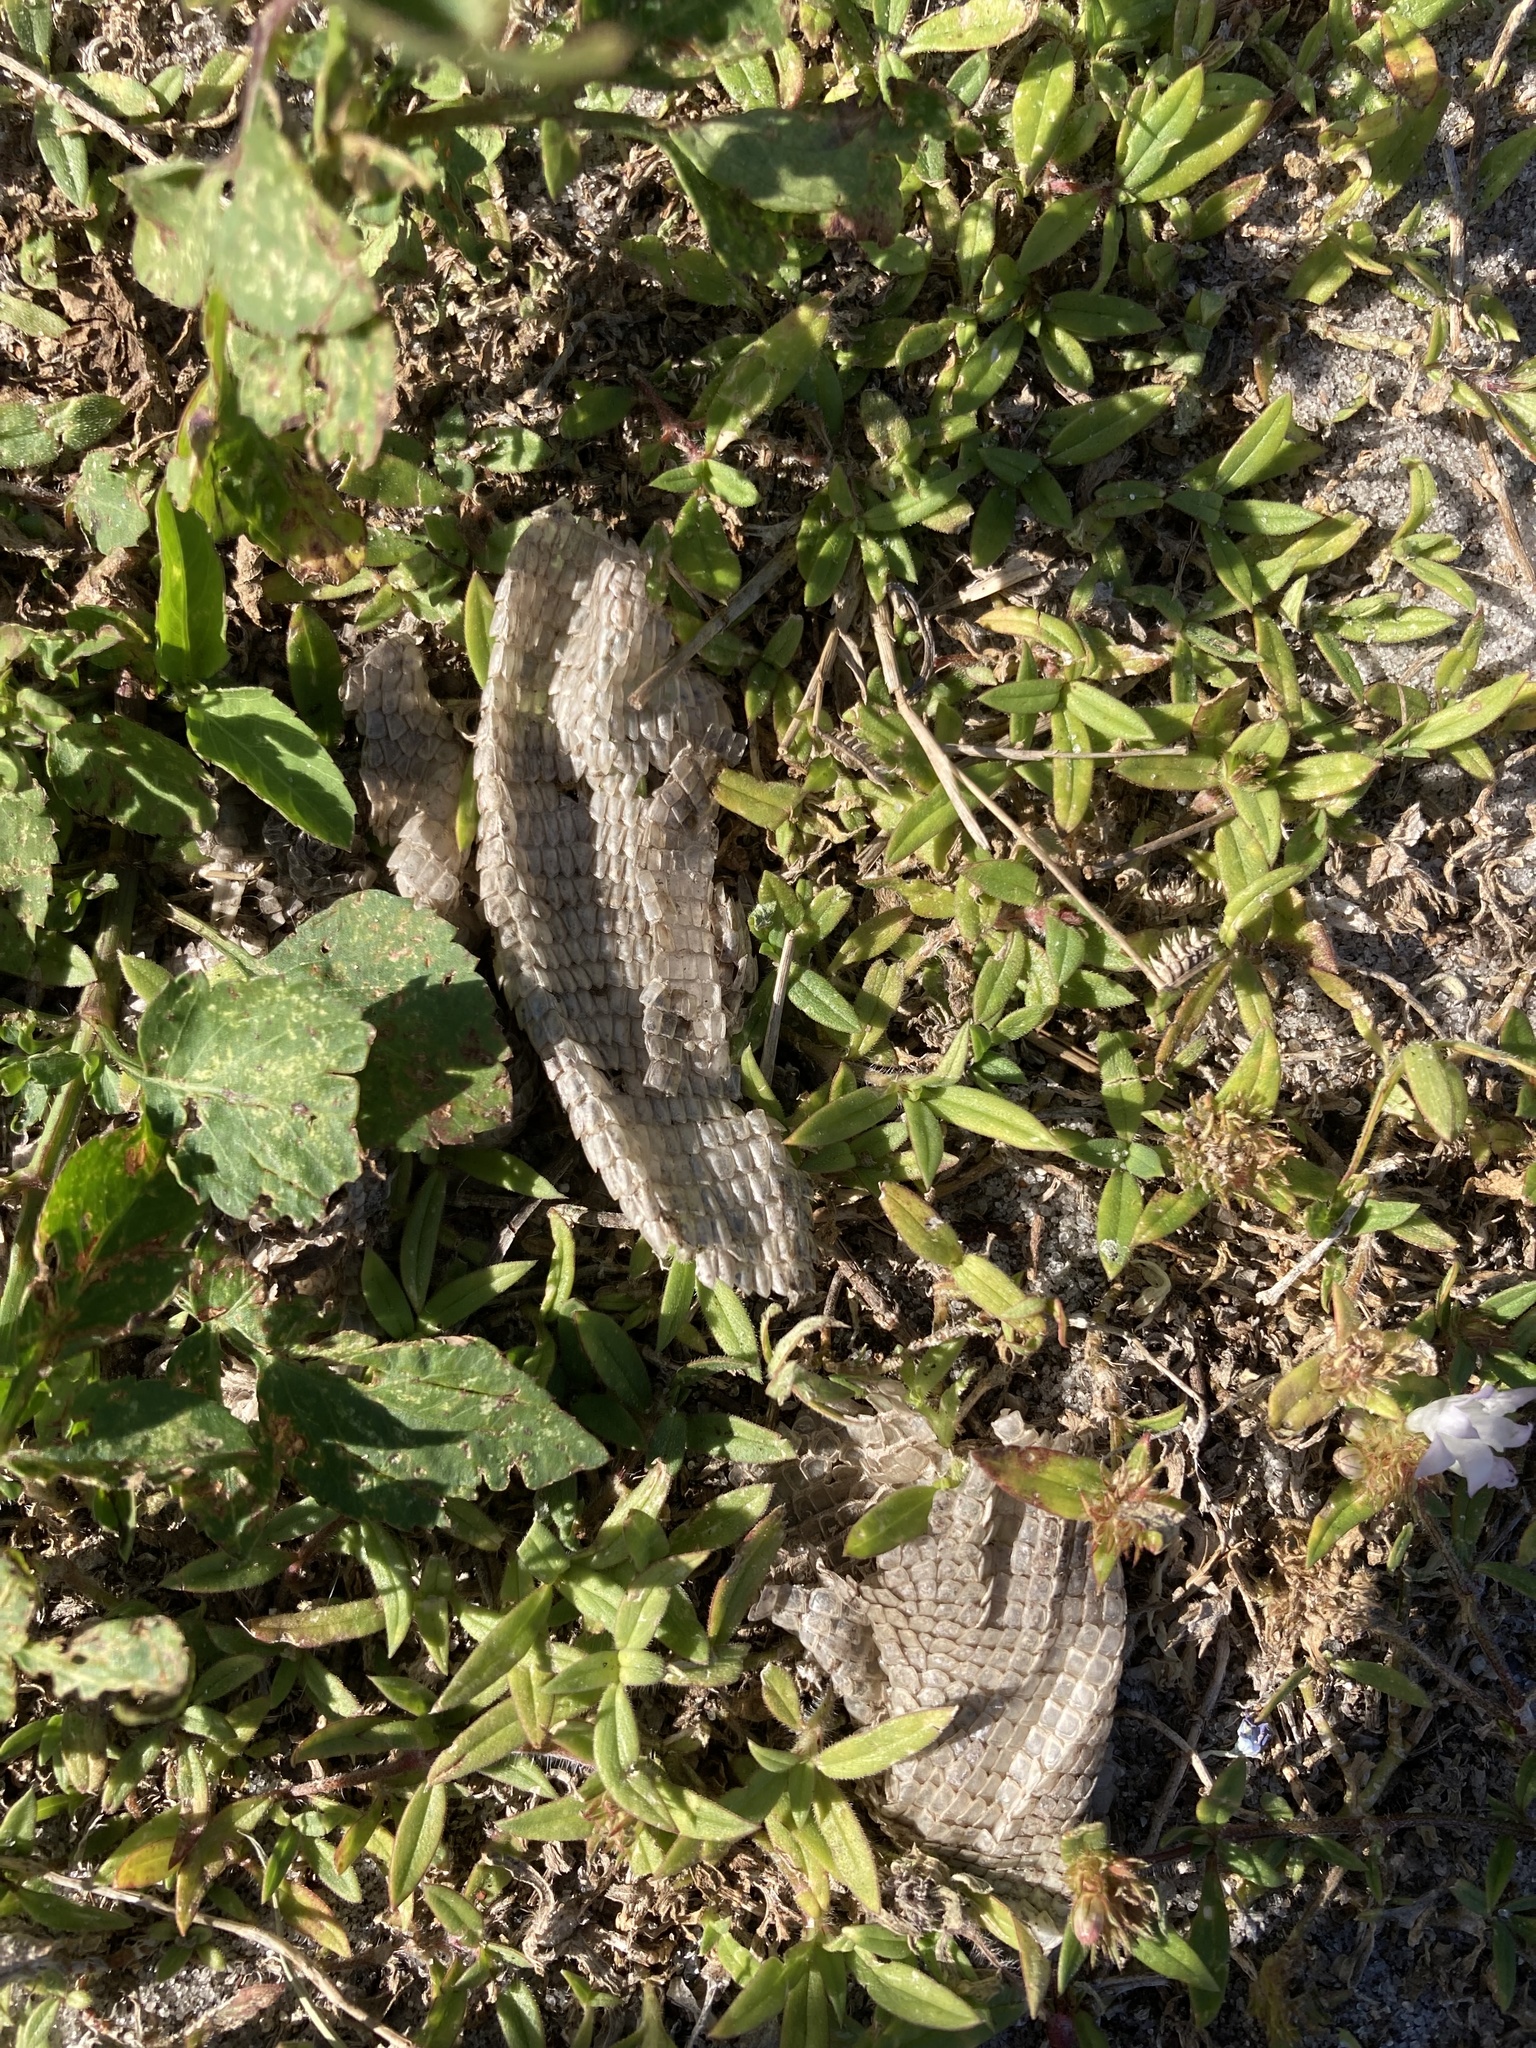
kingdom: Animalia
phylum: Chordata
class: Squamata
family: Leiocephalidae
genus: Leiocephalus
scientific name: Leiocephalus carinatus
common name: Northern curly-tailed lizard
